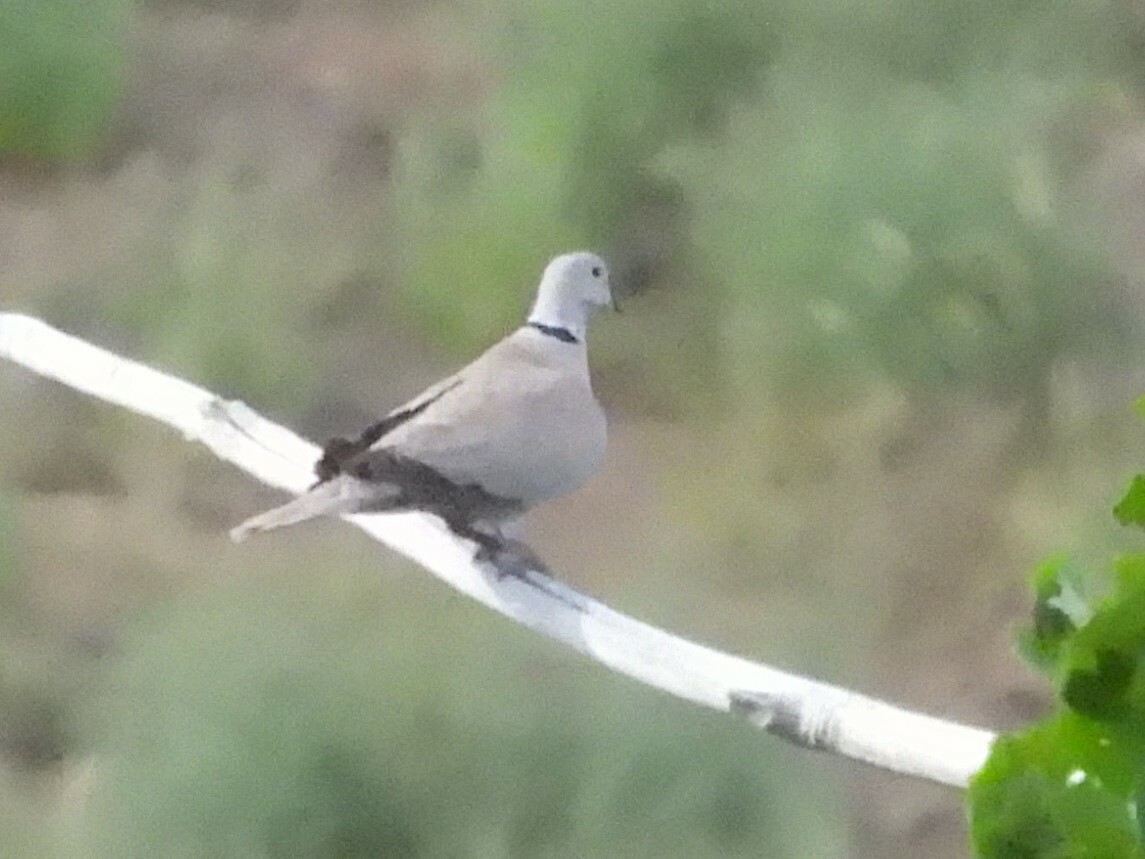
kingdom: Animalia
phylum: Chordata
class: Aves
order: Columbiformes
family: Columbidae
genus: Streptopelia
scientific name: Streptopelia decaocto
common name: Eurasian collared dove
